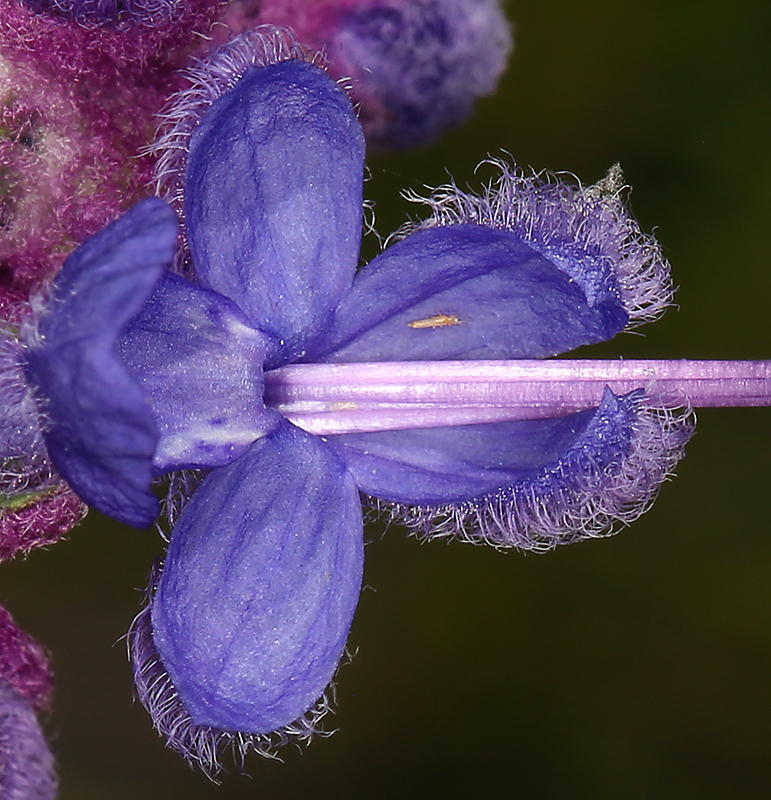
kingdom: Plantae
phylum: Tracheophyta
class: Magnoliopsida
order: Lamiales
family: Lamiaceae
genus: Trichostema
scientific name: Trichostema lanatum
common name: Woolly bluecurls
